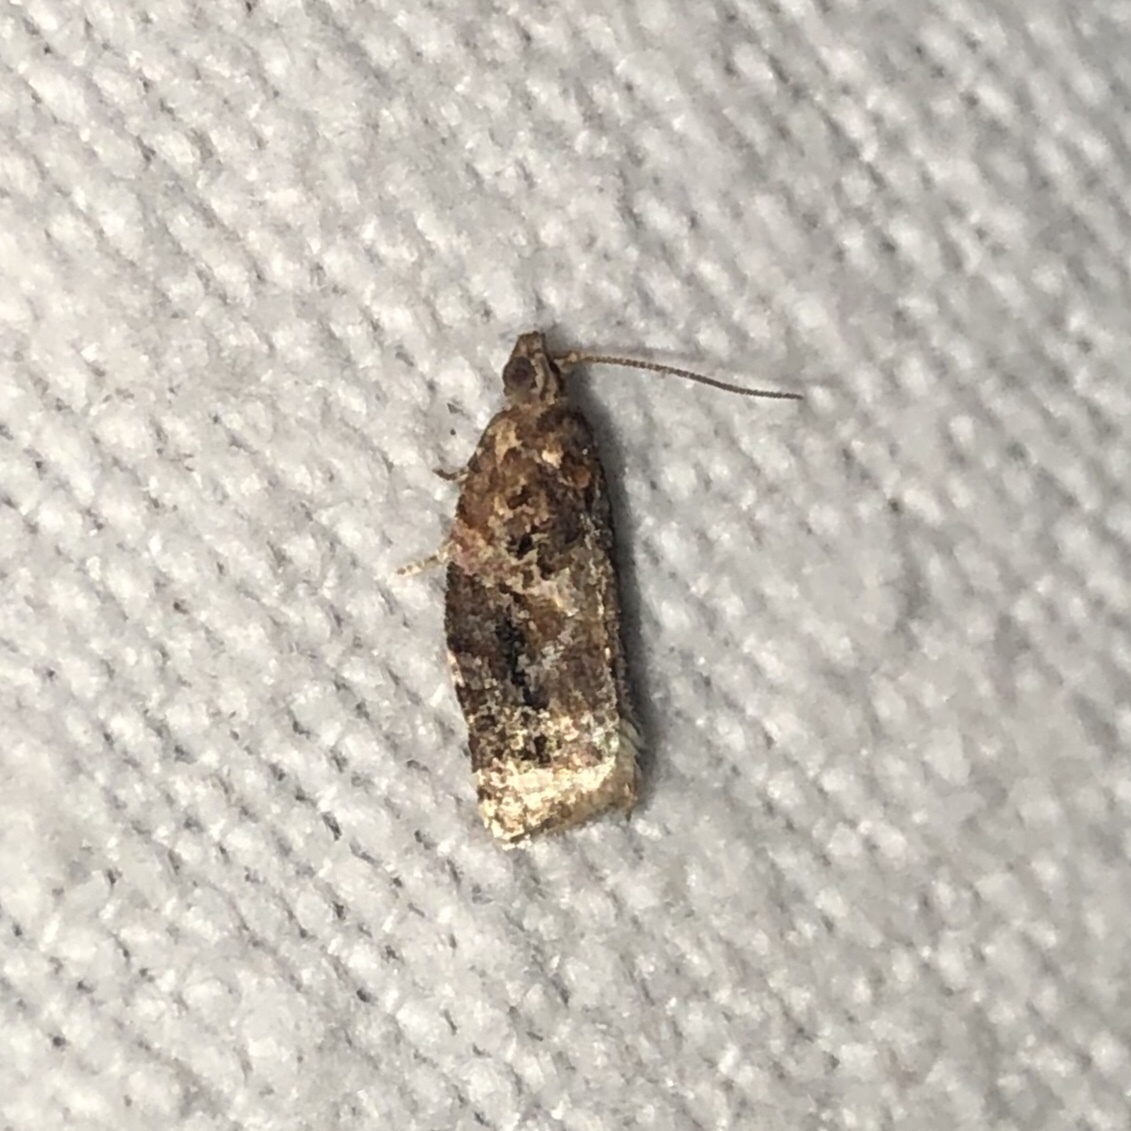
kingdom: Animalia
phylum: Arthropoda
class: Insecta
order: Lepidoptera
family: Tortricidae
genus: Argyrotaenia
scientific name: Argyrotaenia velutinana
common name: Red-banded leafroller moth
